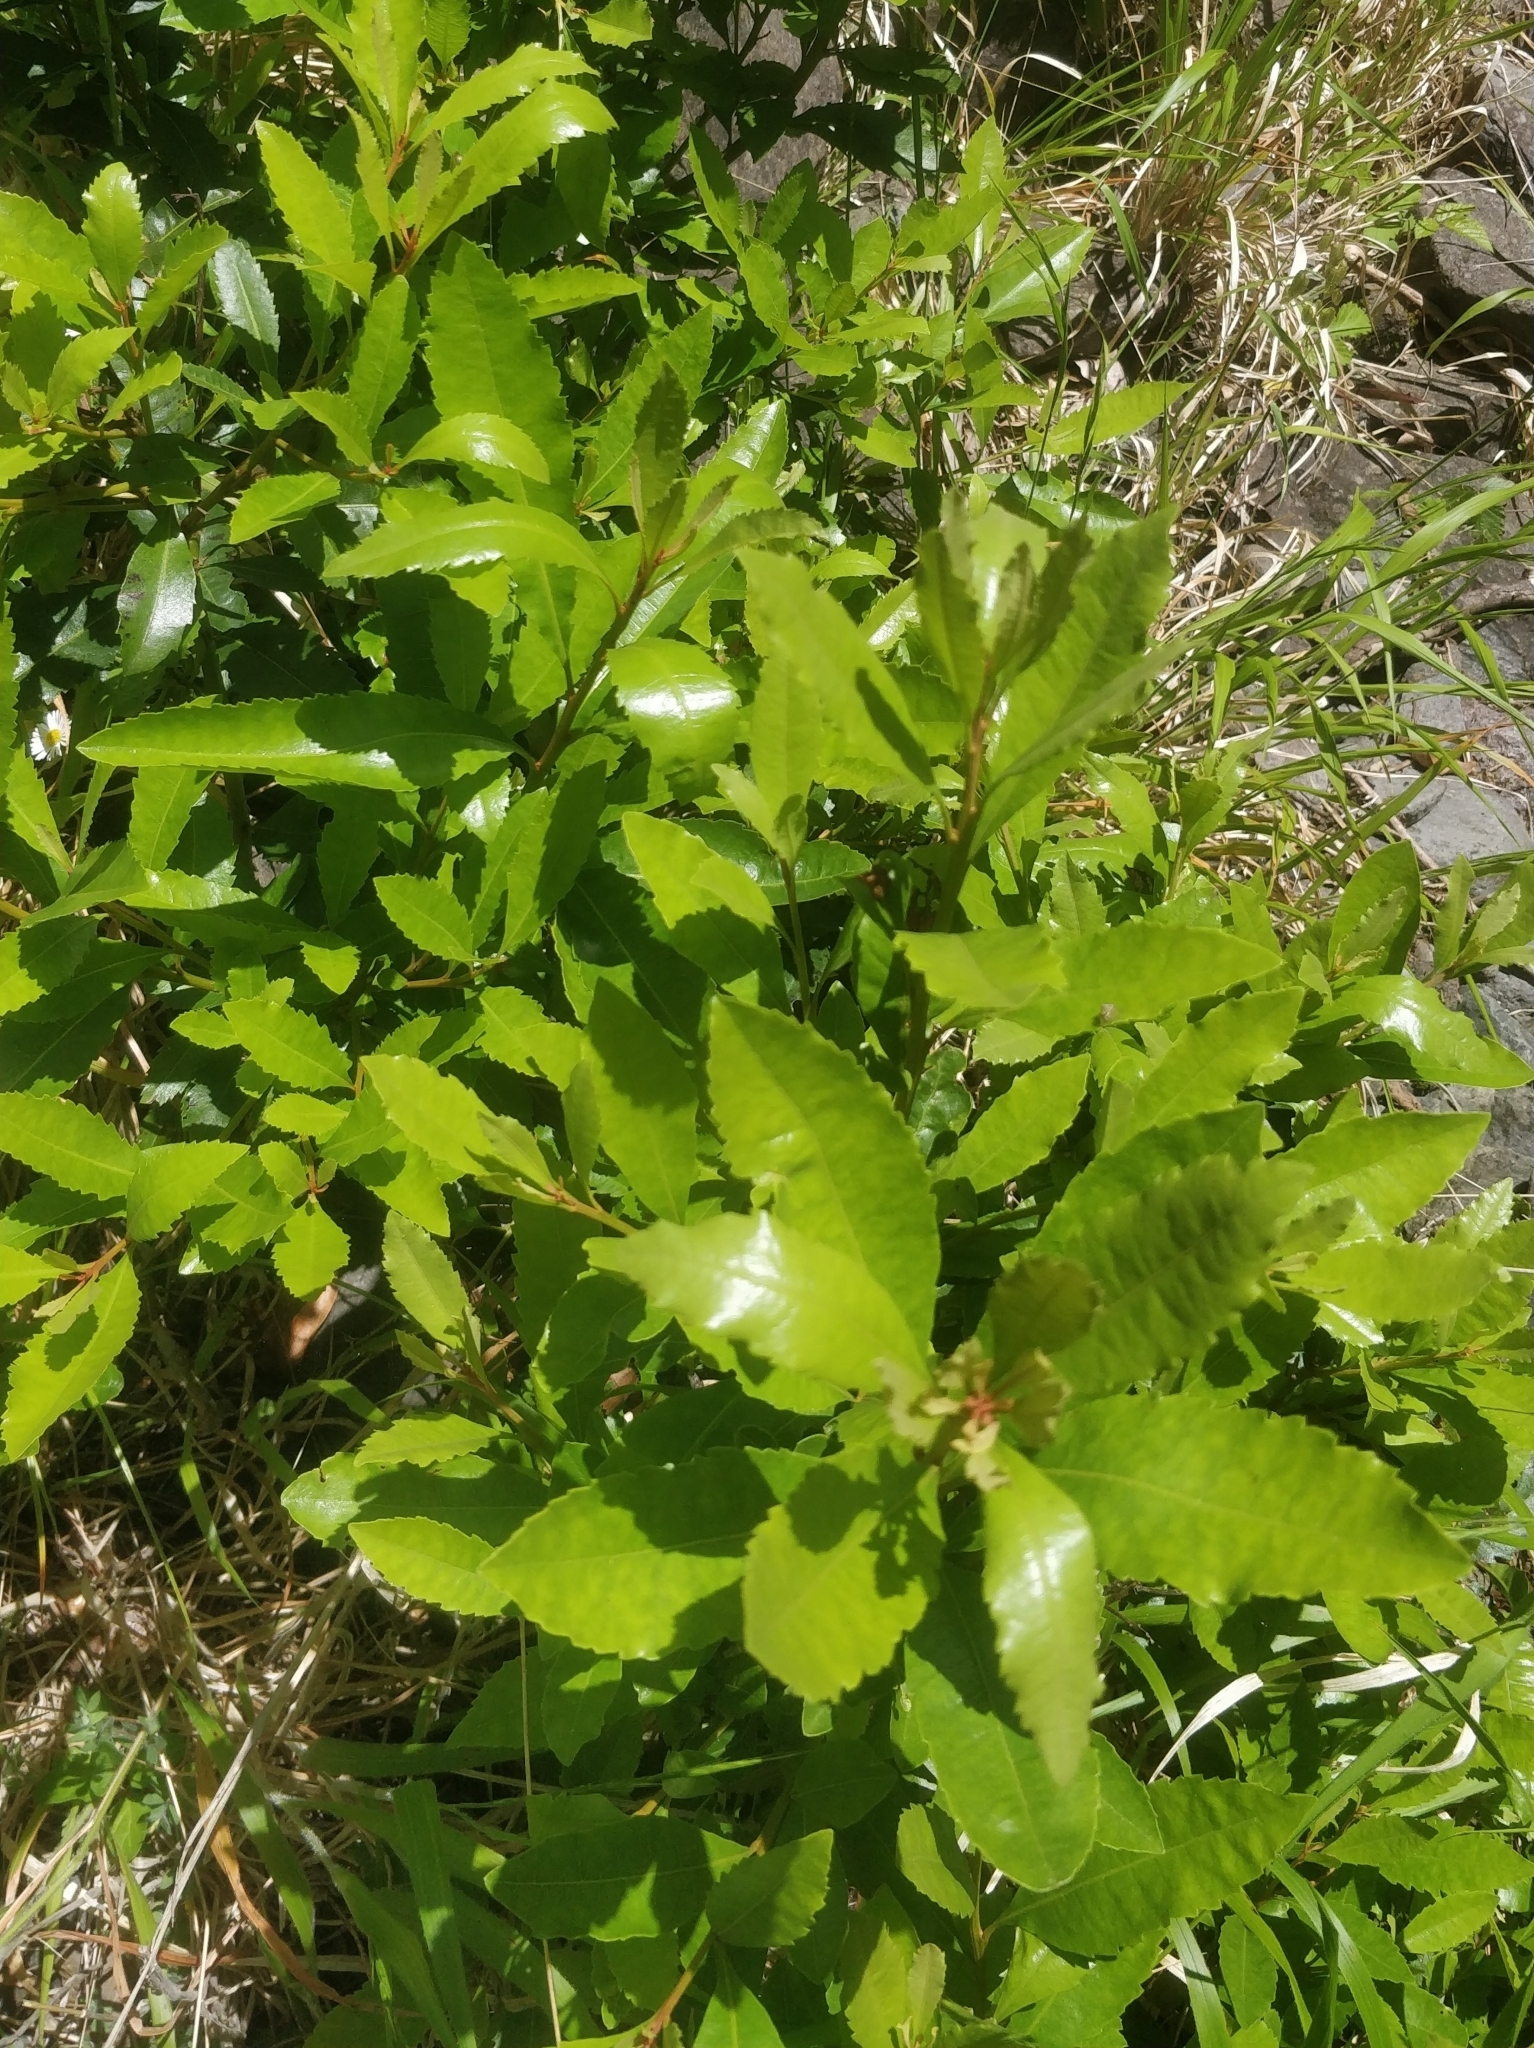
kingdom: Plantae
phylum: Tracheophyta
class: Magnoliopsida
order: Fagales
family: Myricaceae
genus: Morella
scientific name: Morella faya
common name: Firetree
